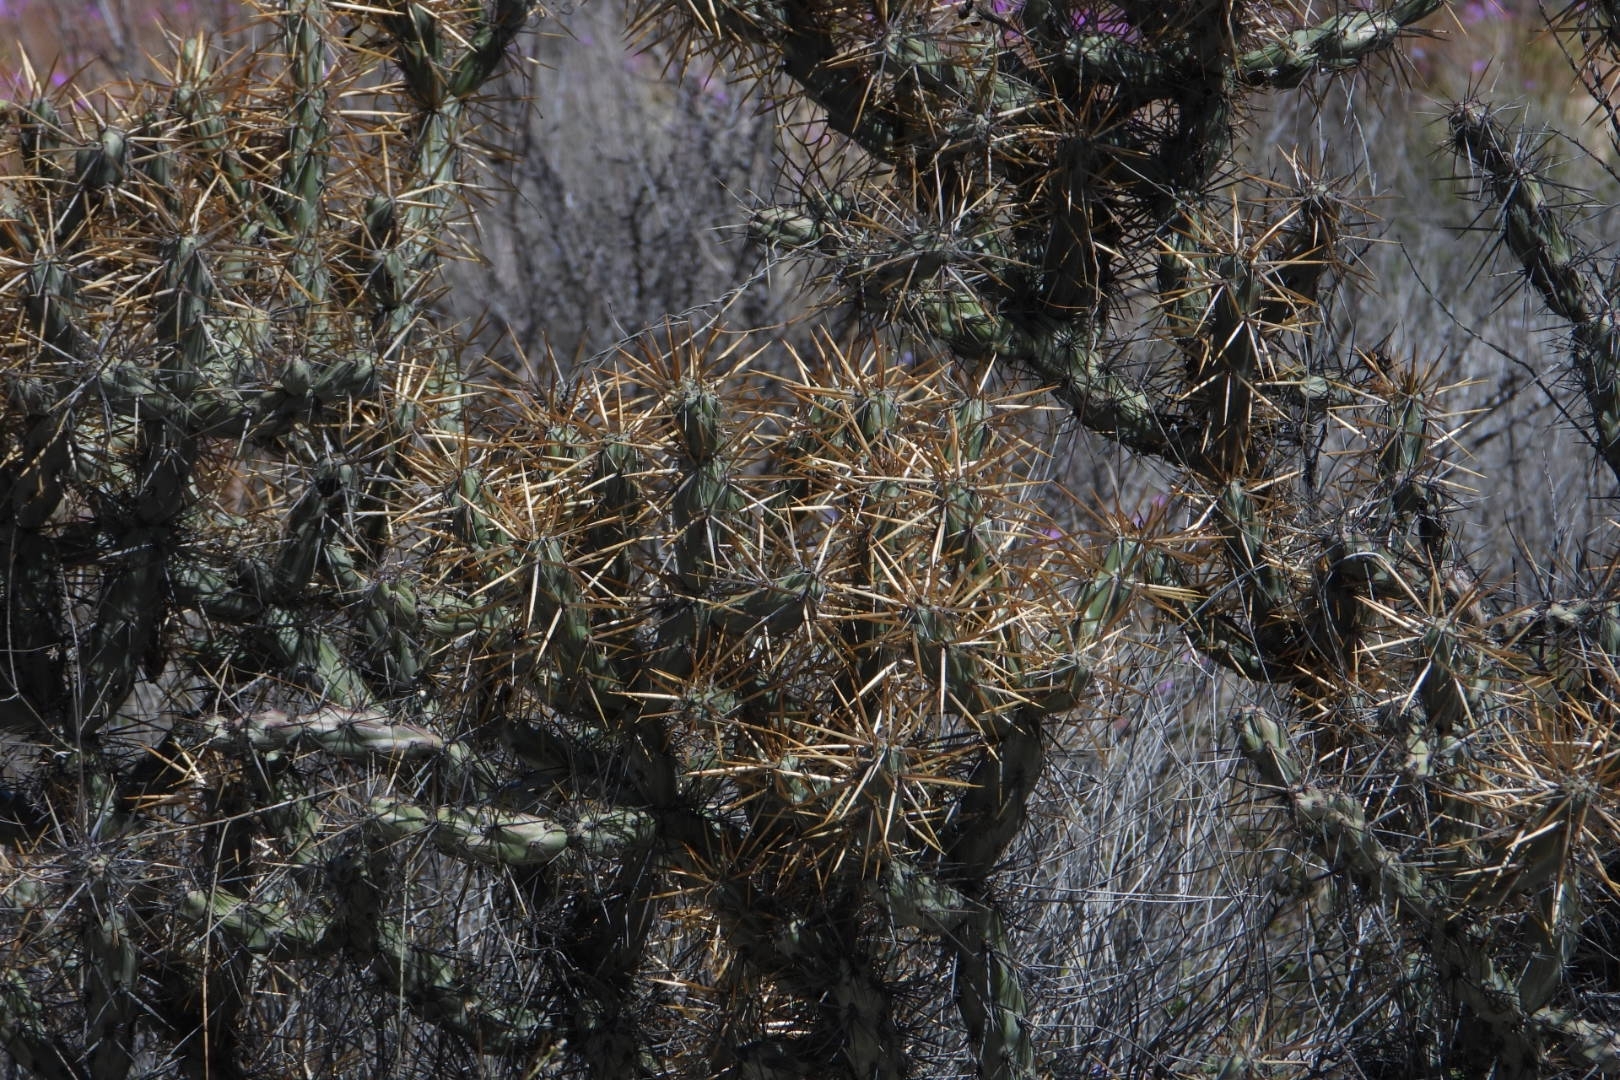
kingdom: Plantae
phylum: Tracheophyta
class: Magnoliopsida
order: Caryophyllales
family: Cactaceae
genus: Cylindropuntia
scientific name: Cylindropuntia molesta
